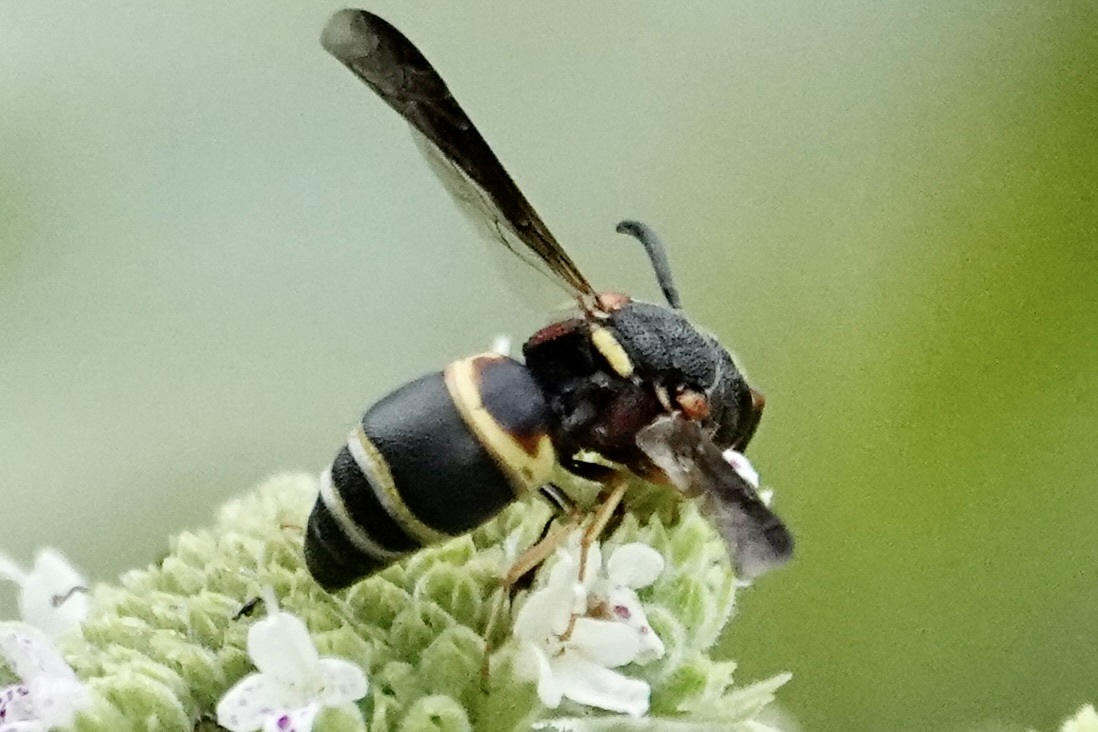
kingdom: Animalia
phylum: Arthropoda
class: Insecta
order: Hymenoptera
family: Eumenidae
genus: Euodynerus
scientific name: Euodynerus hidalgo
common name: Wasp
